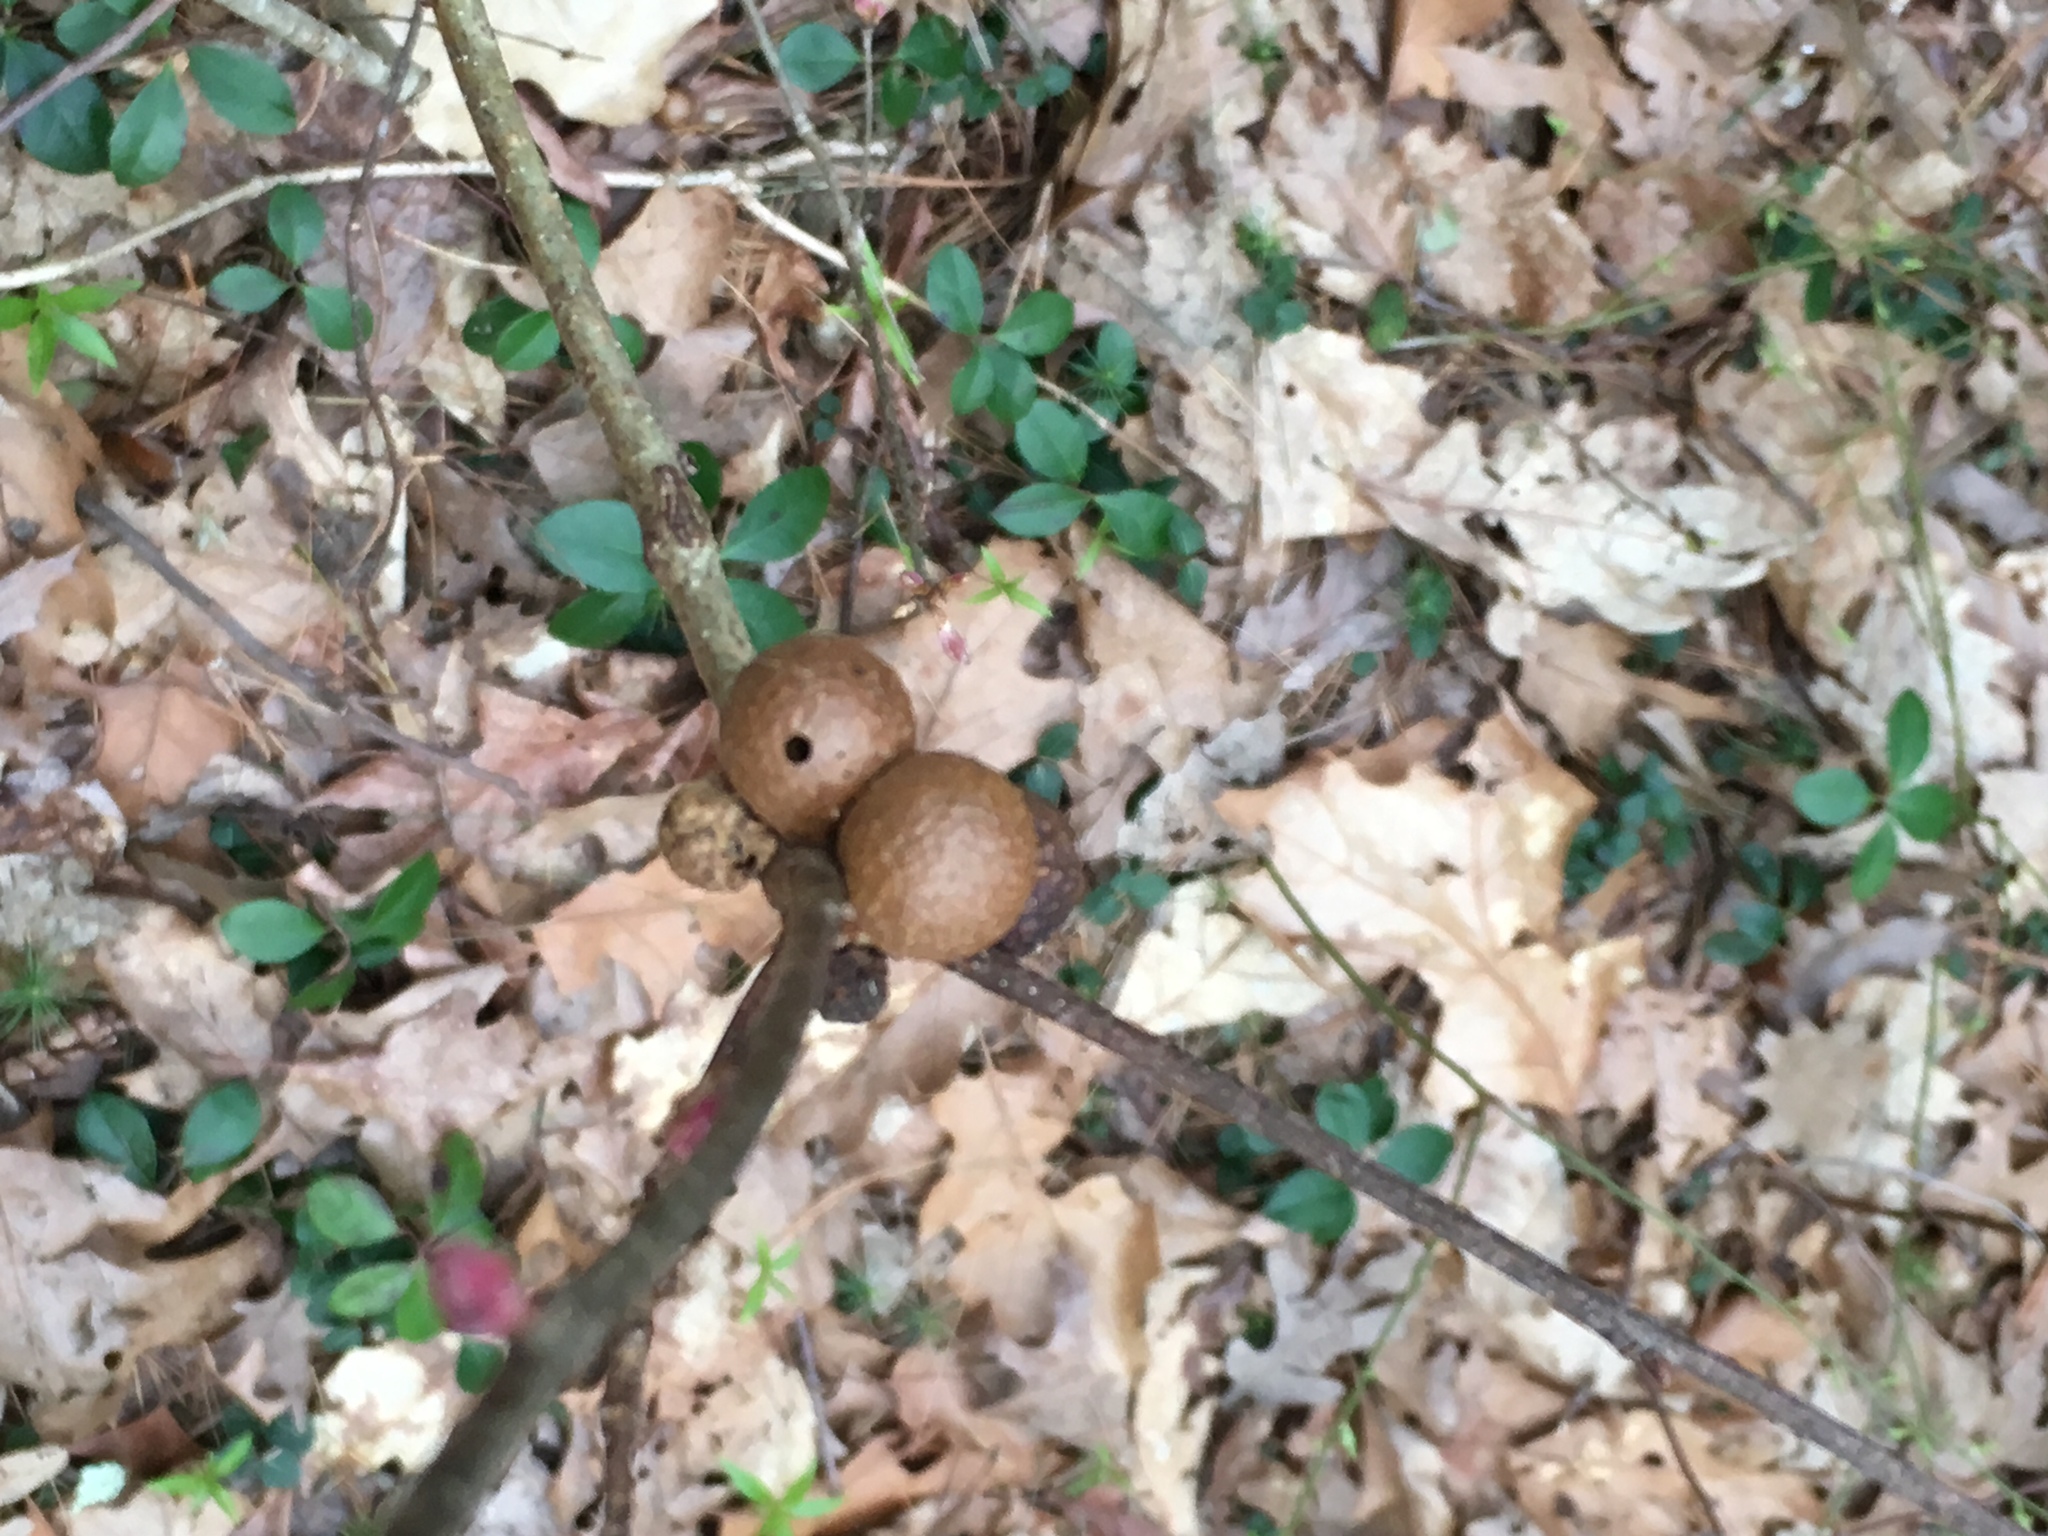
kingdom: Animalia
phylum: Arthropoda
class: Insecta
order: Hymenoptera
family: Cynipidae
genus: Amphibolips
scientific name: Amphibolips
